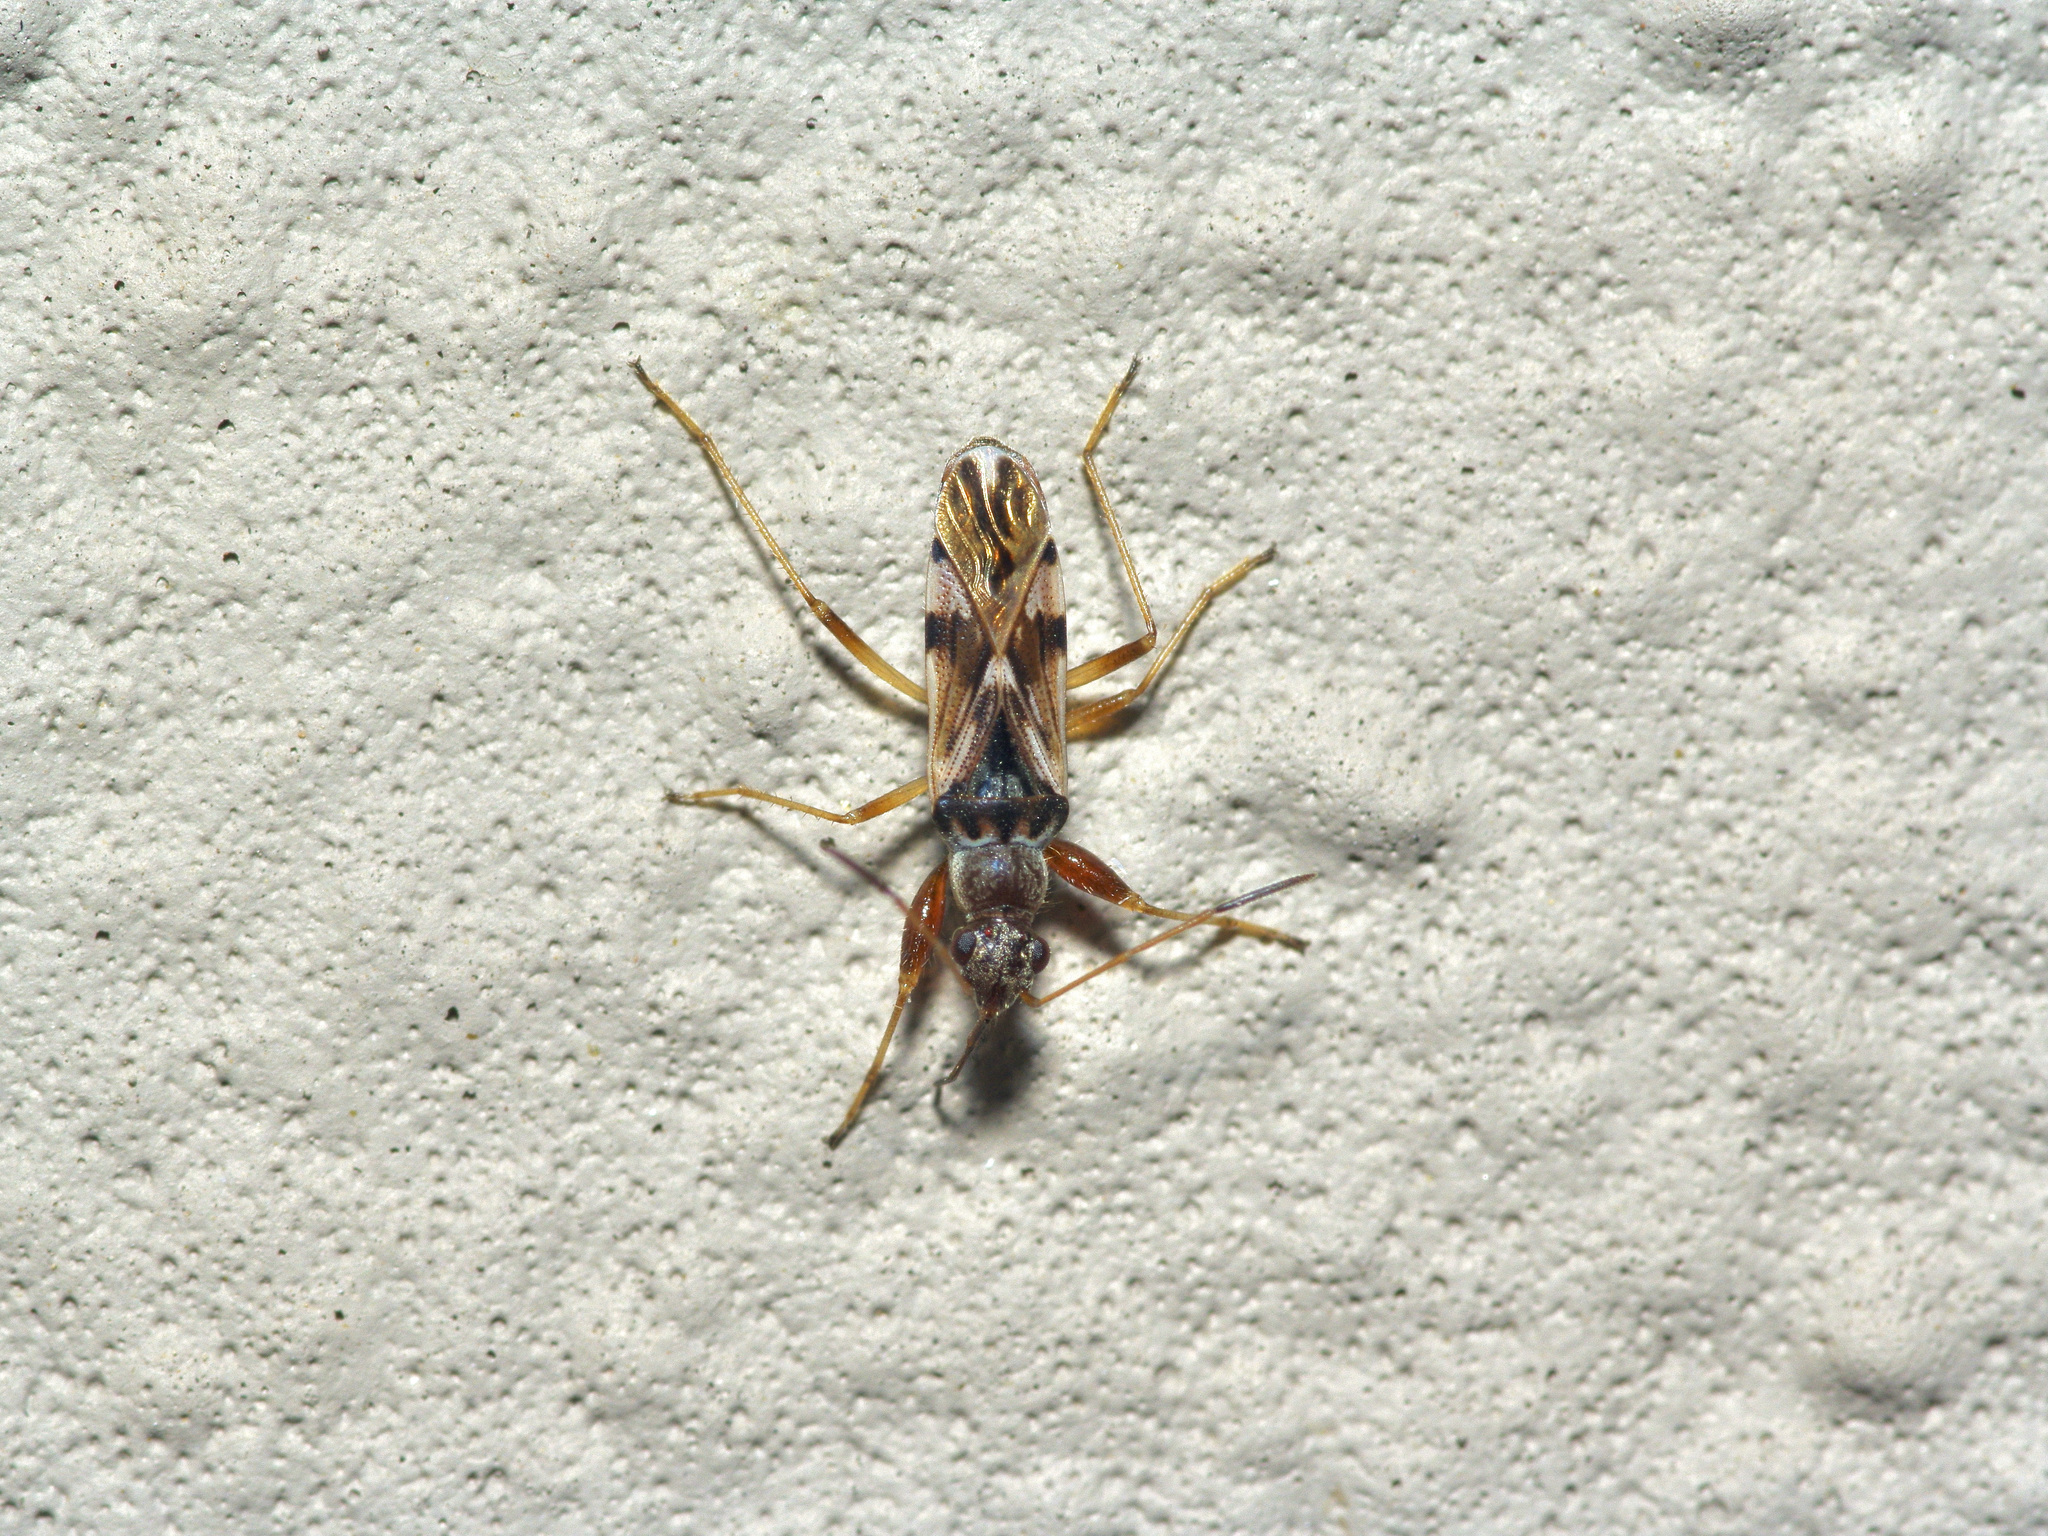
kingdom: Animalia
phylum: Arthropoda
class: Insecta
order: Hemiptera
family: Rhyparochromidae
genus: Neopamera
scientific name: Neopamera bilobata
